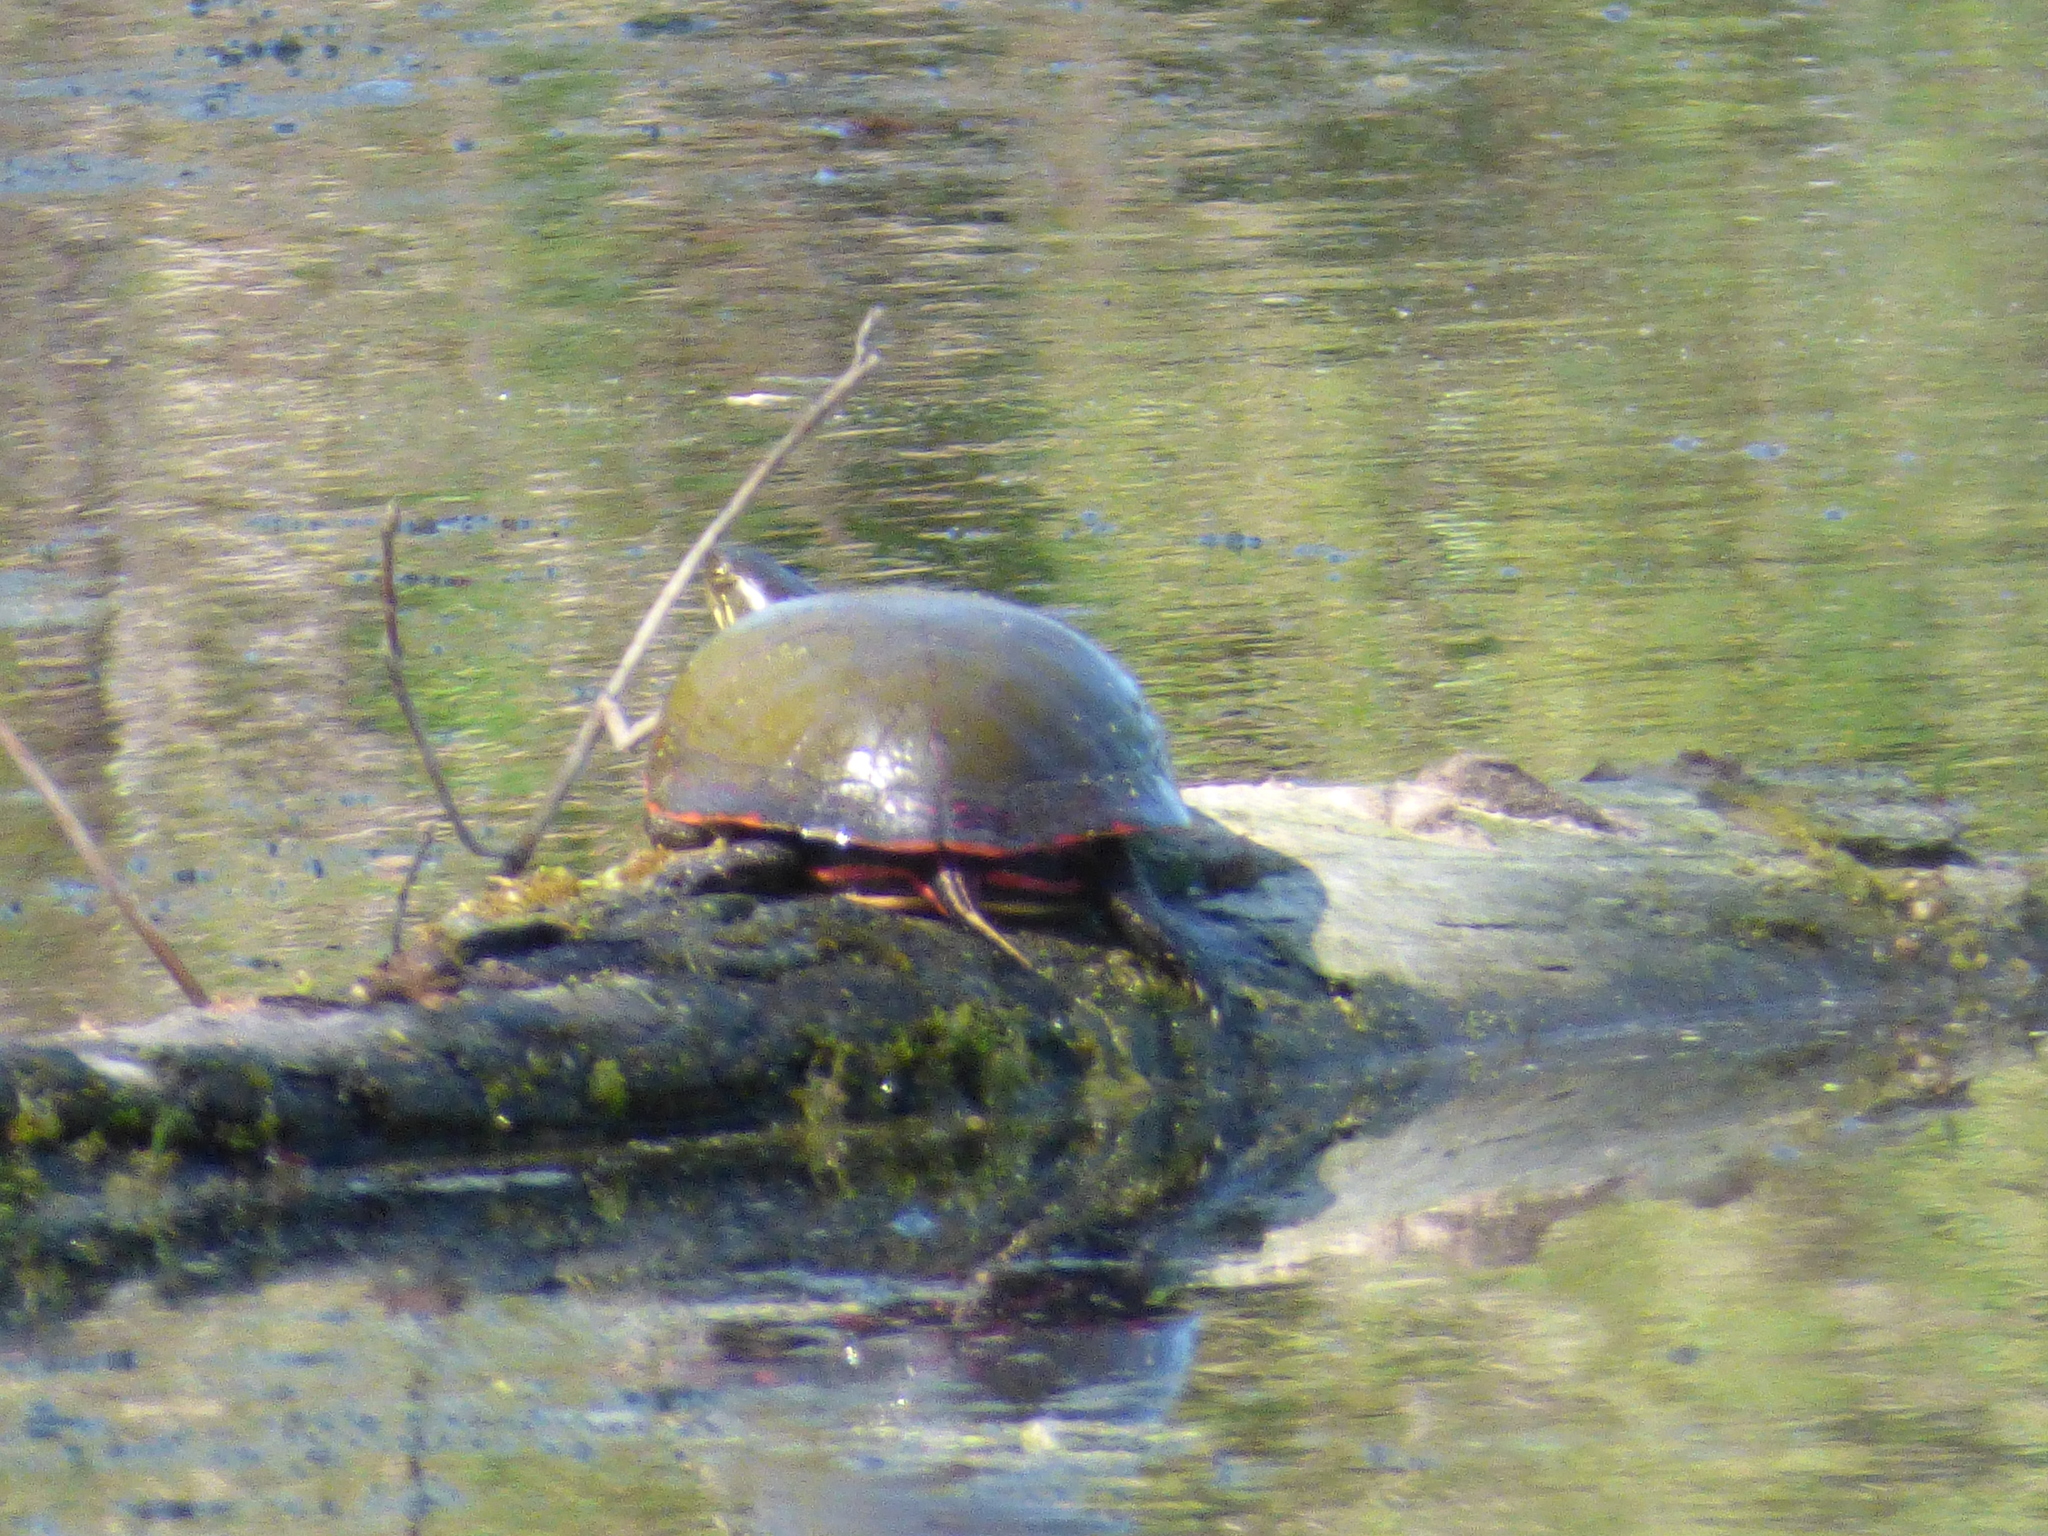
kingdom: Animalia
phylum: Chordata
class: Testudines
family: Emydidae
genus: Chrysemys
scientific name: Chrysemys picta
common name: Painted turtle
